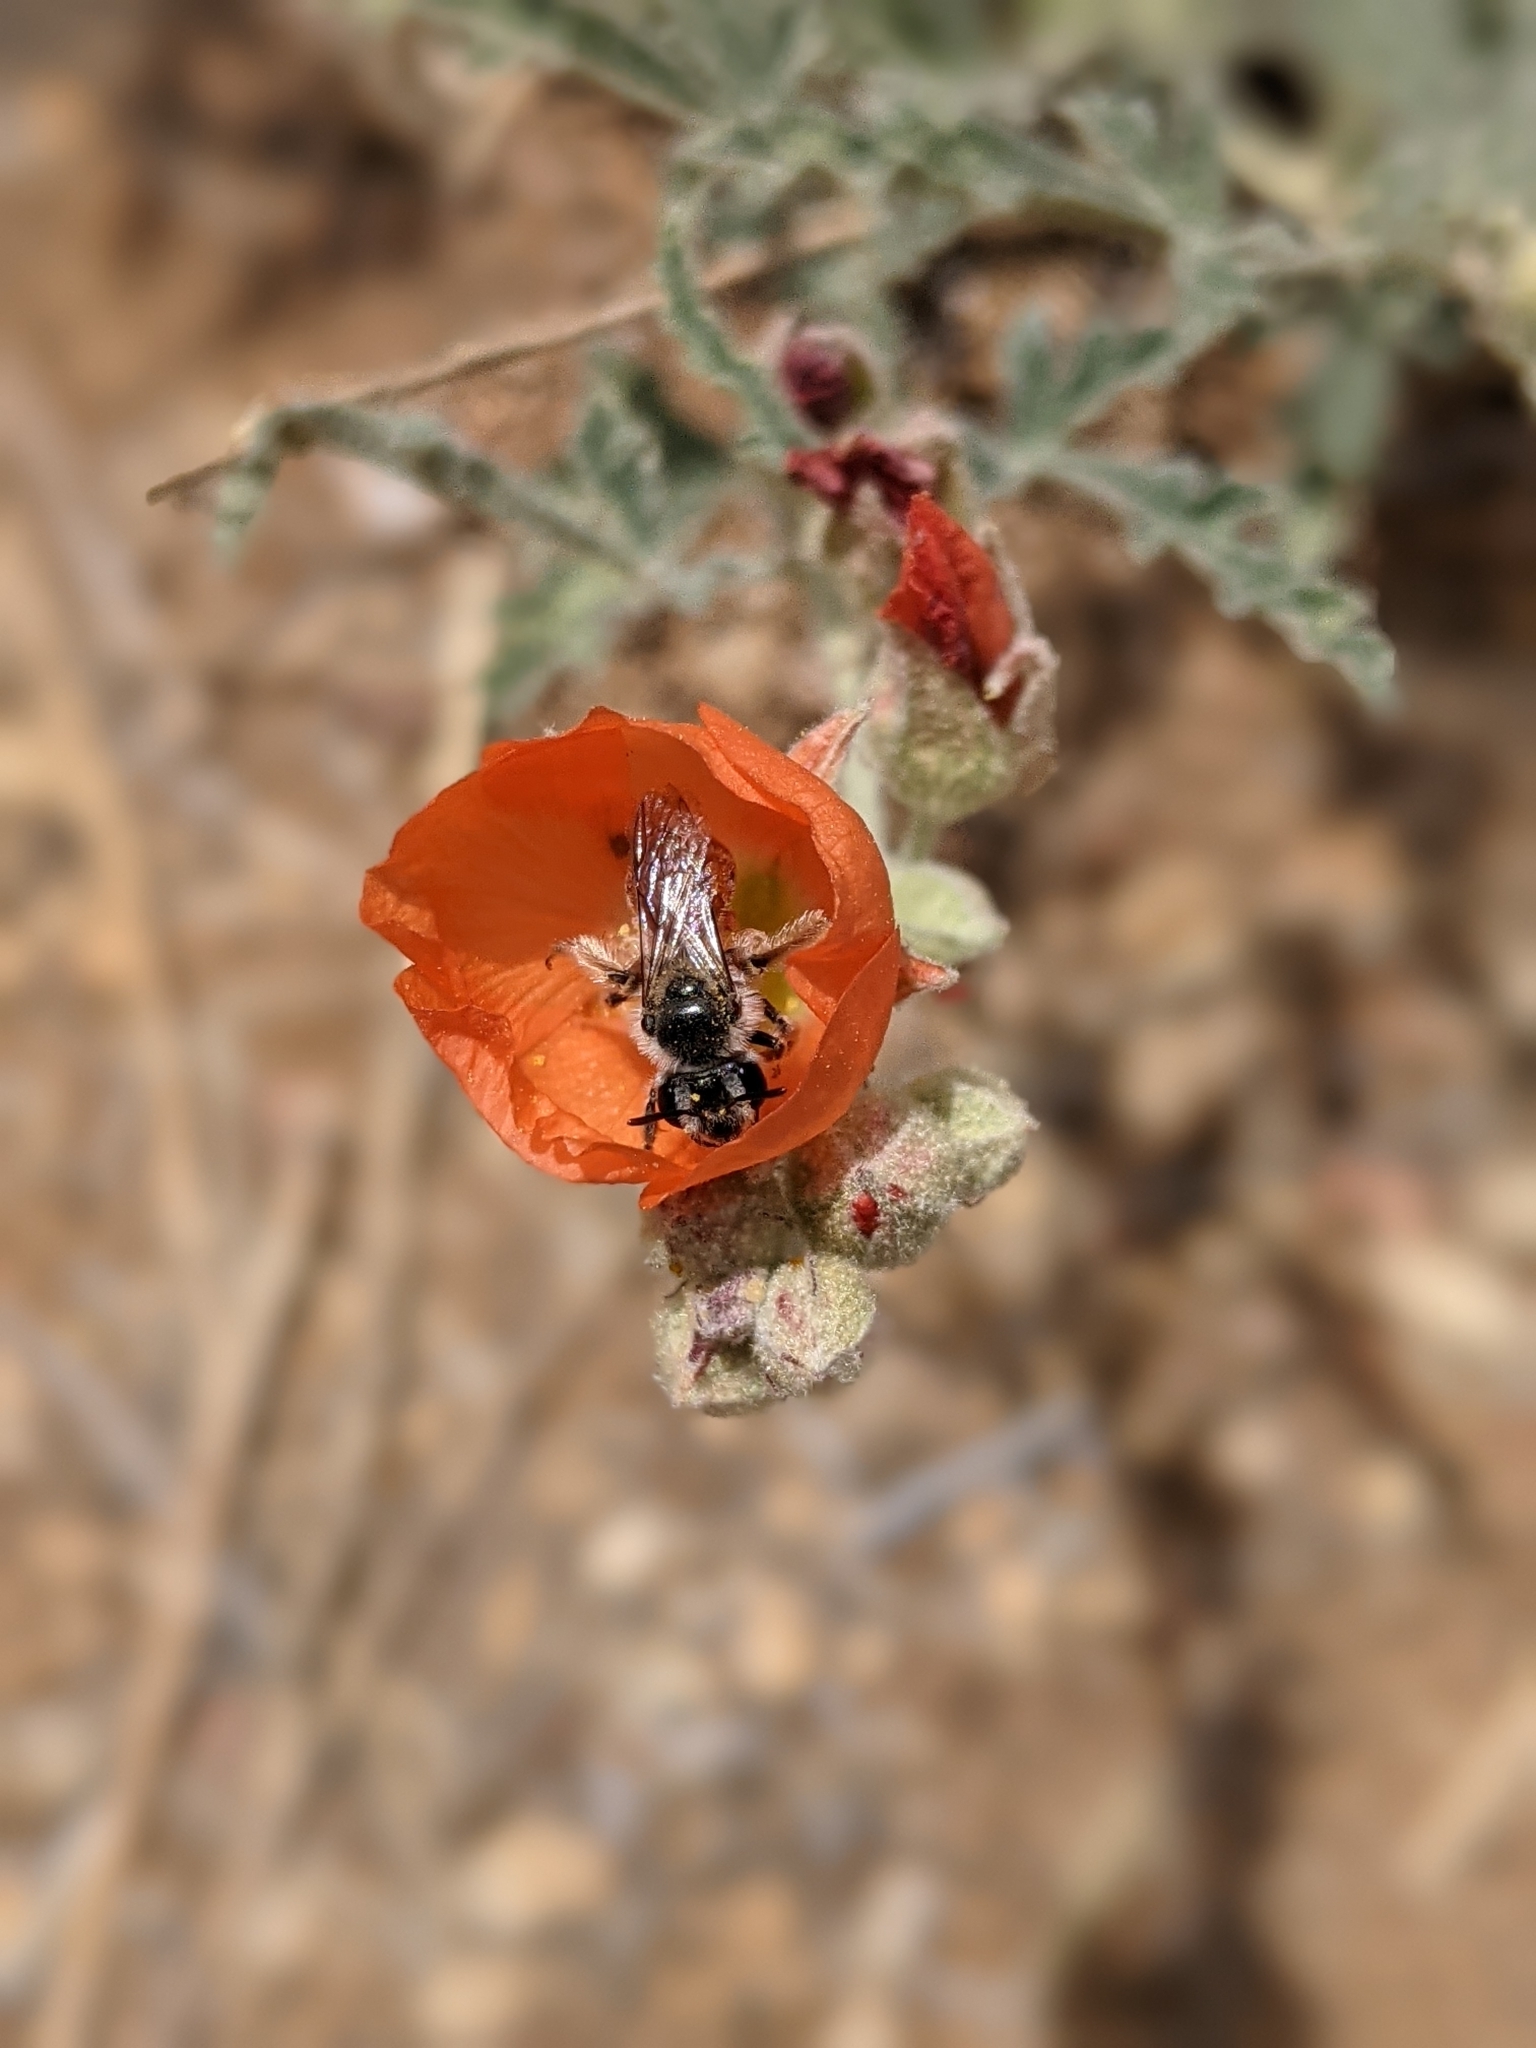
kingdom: Animalia
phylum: Arthropoda
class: Insecta
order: Hymenoptera
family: Andrenidae
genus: Andrena
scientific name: Andrena sphaeralceae
